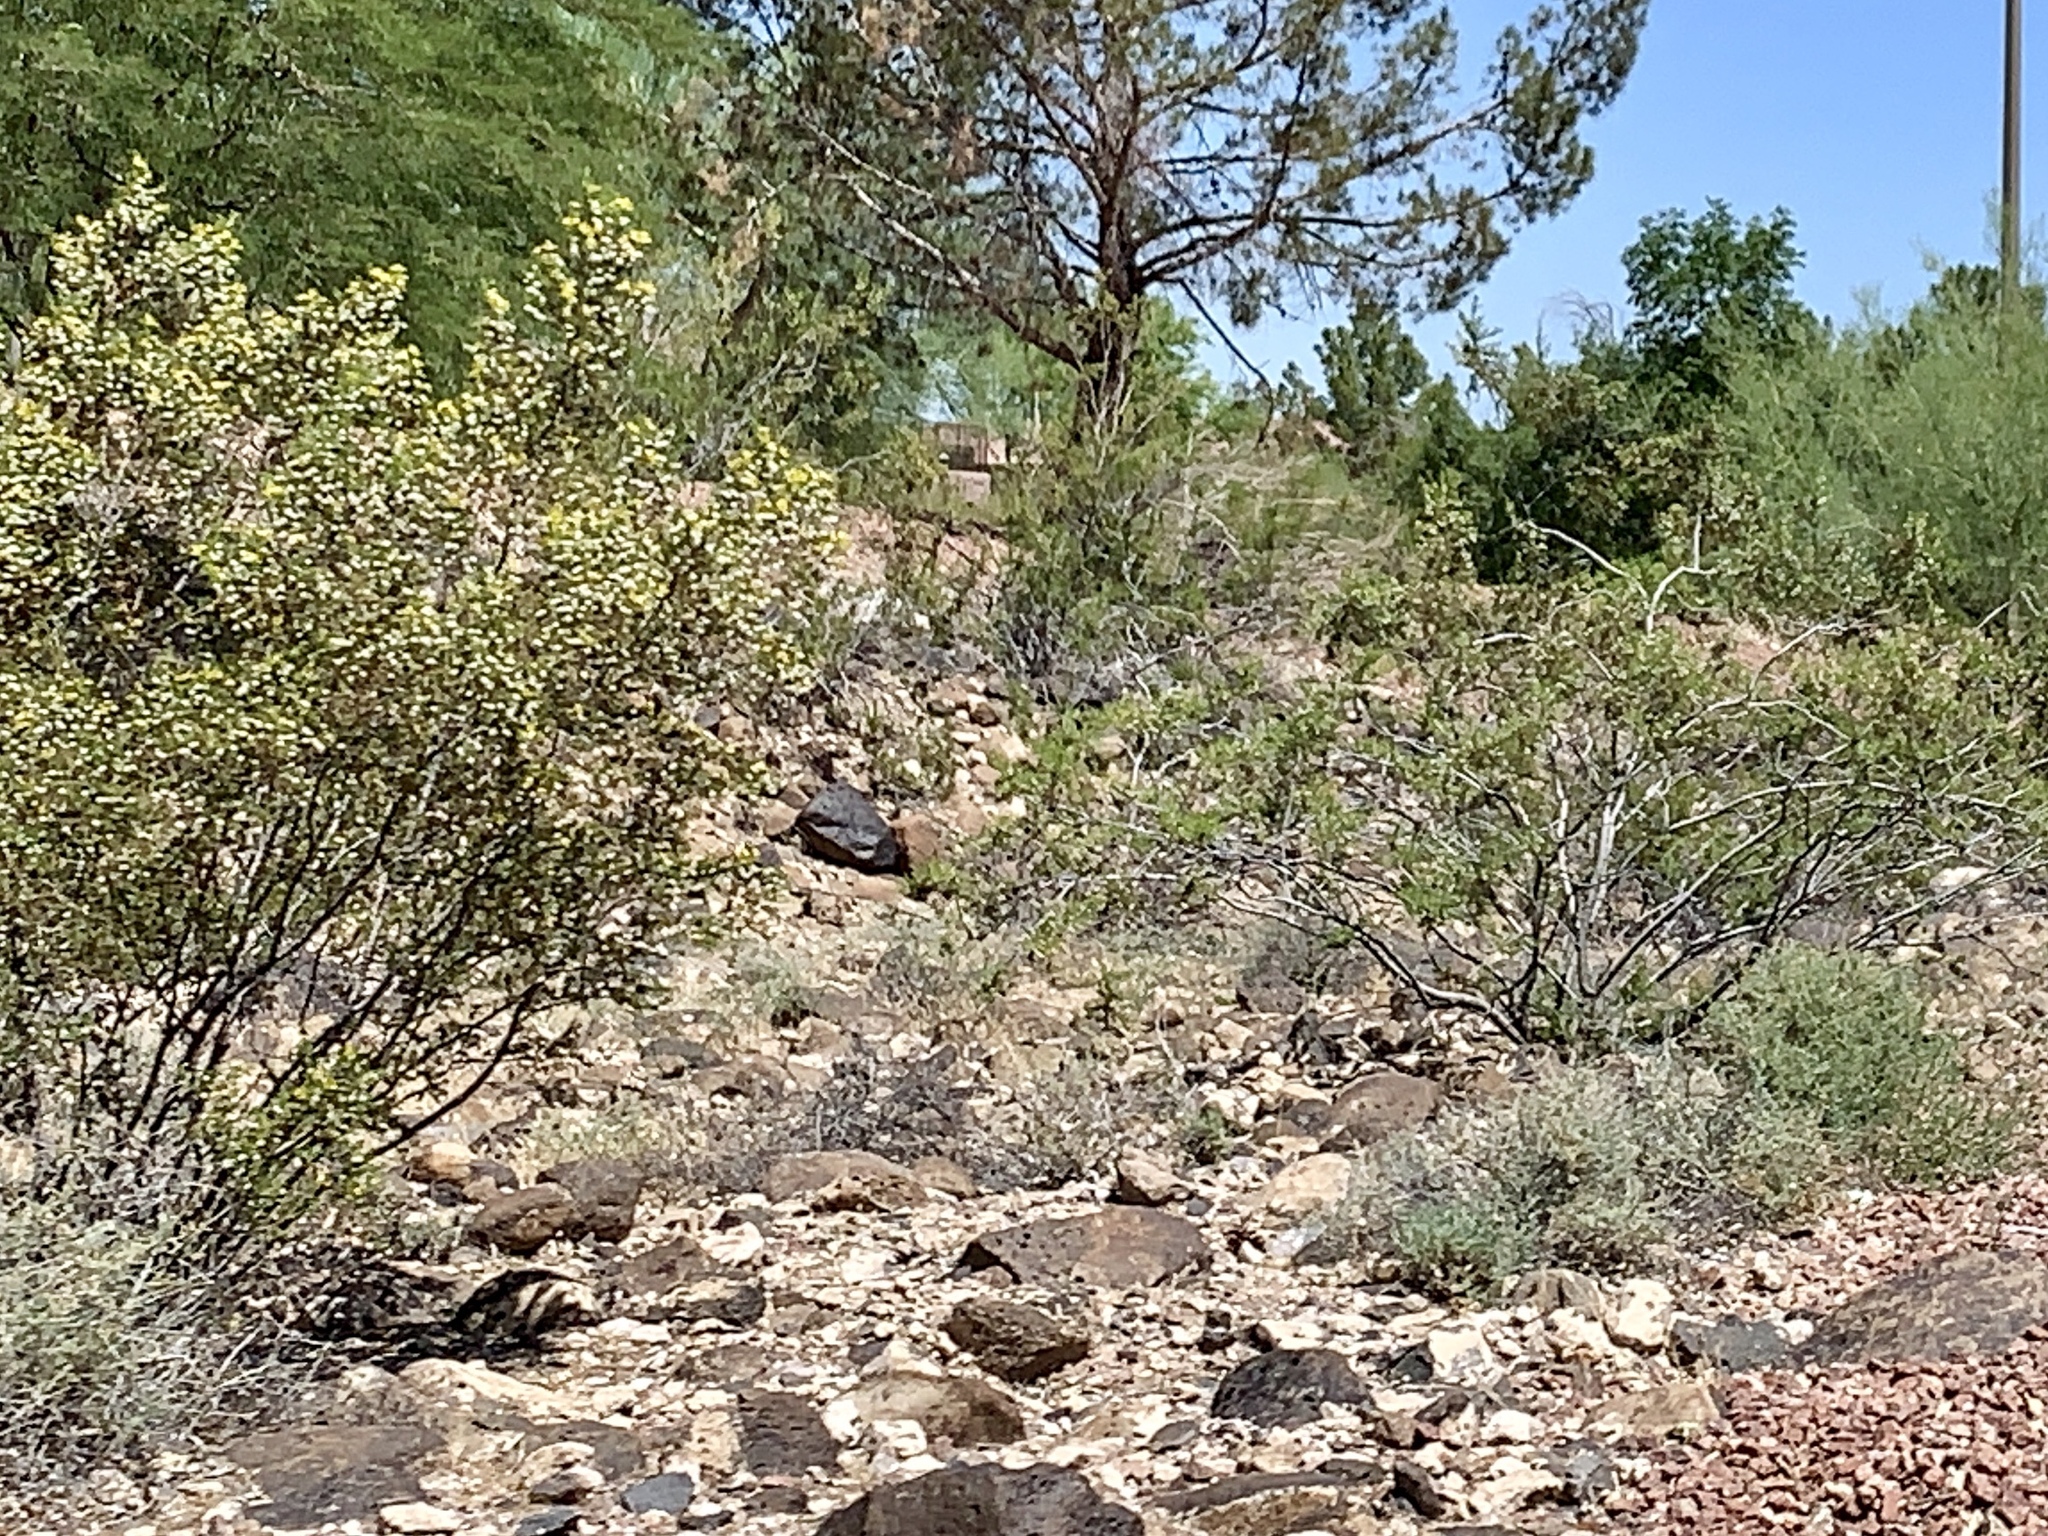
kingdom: Plantae
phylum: Tracheophyta
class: Magnoliopsida
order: Zygophyllales
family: Zygophyllaceae
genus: Larrea
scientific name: Larrea tridentata
